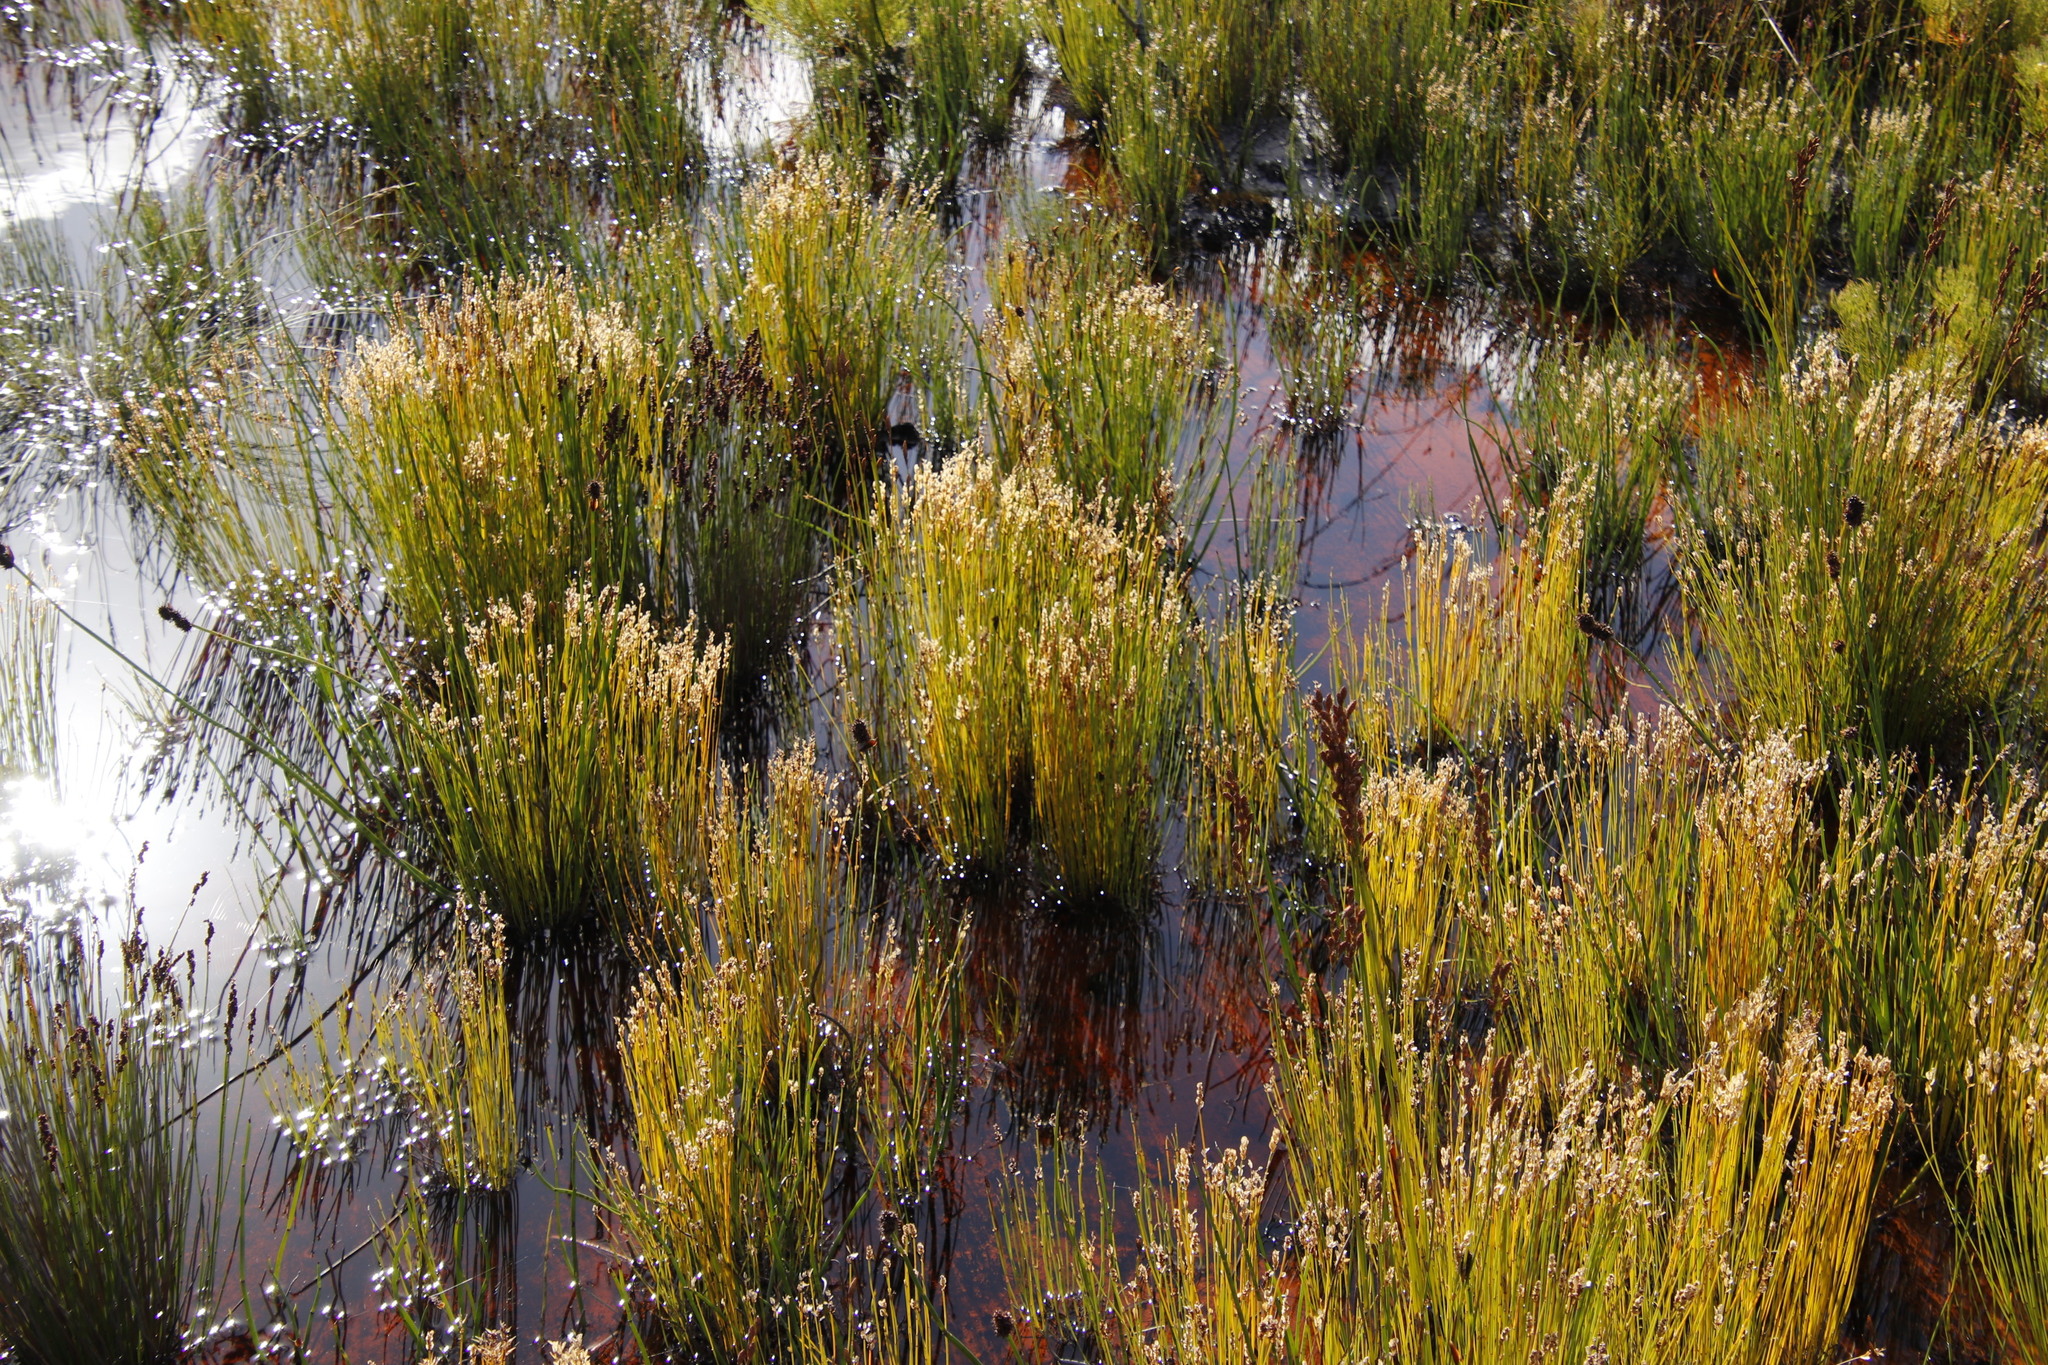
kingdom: Plantae
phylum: Tracheophyta
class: Liliopsida
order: Poales
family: Restionaceae
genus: Elegia
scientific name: Elegia filacea
